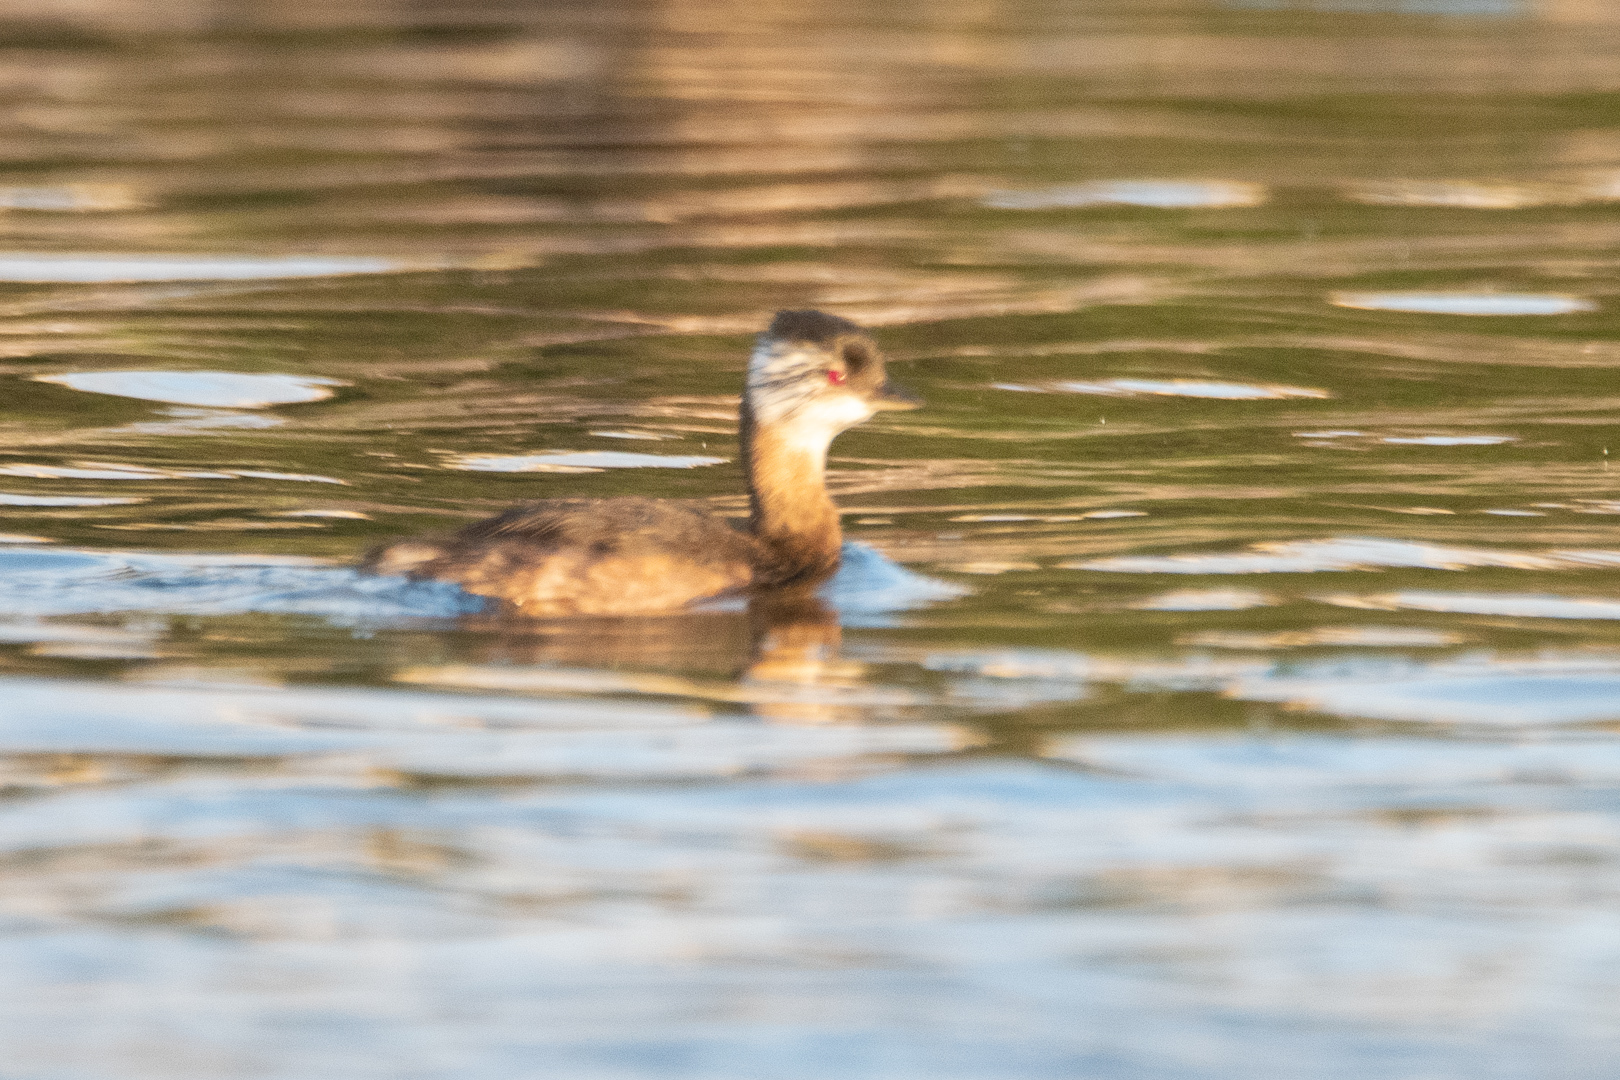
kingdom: Animalia
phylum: Chordata
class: Aves
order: Podicipediformes
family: Podicipedidae
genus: Rollandia
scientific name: Rollandia rolland
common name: White-tufted grebe
